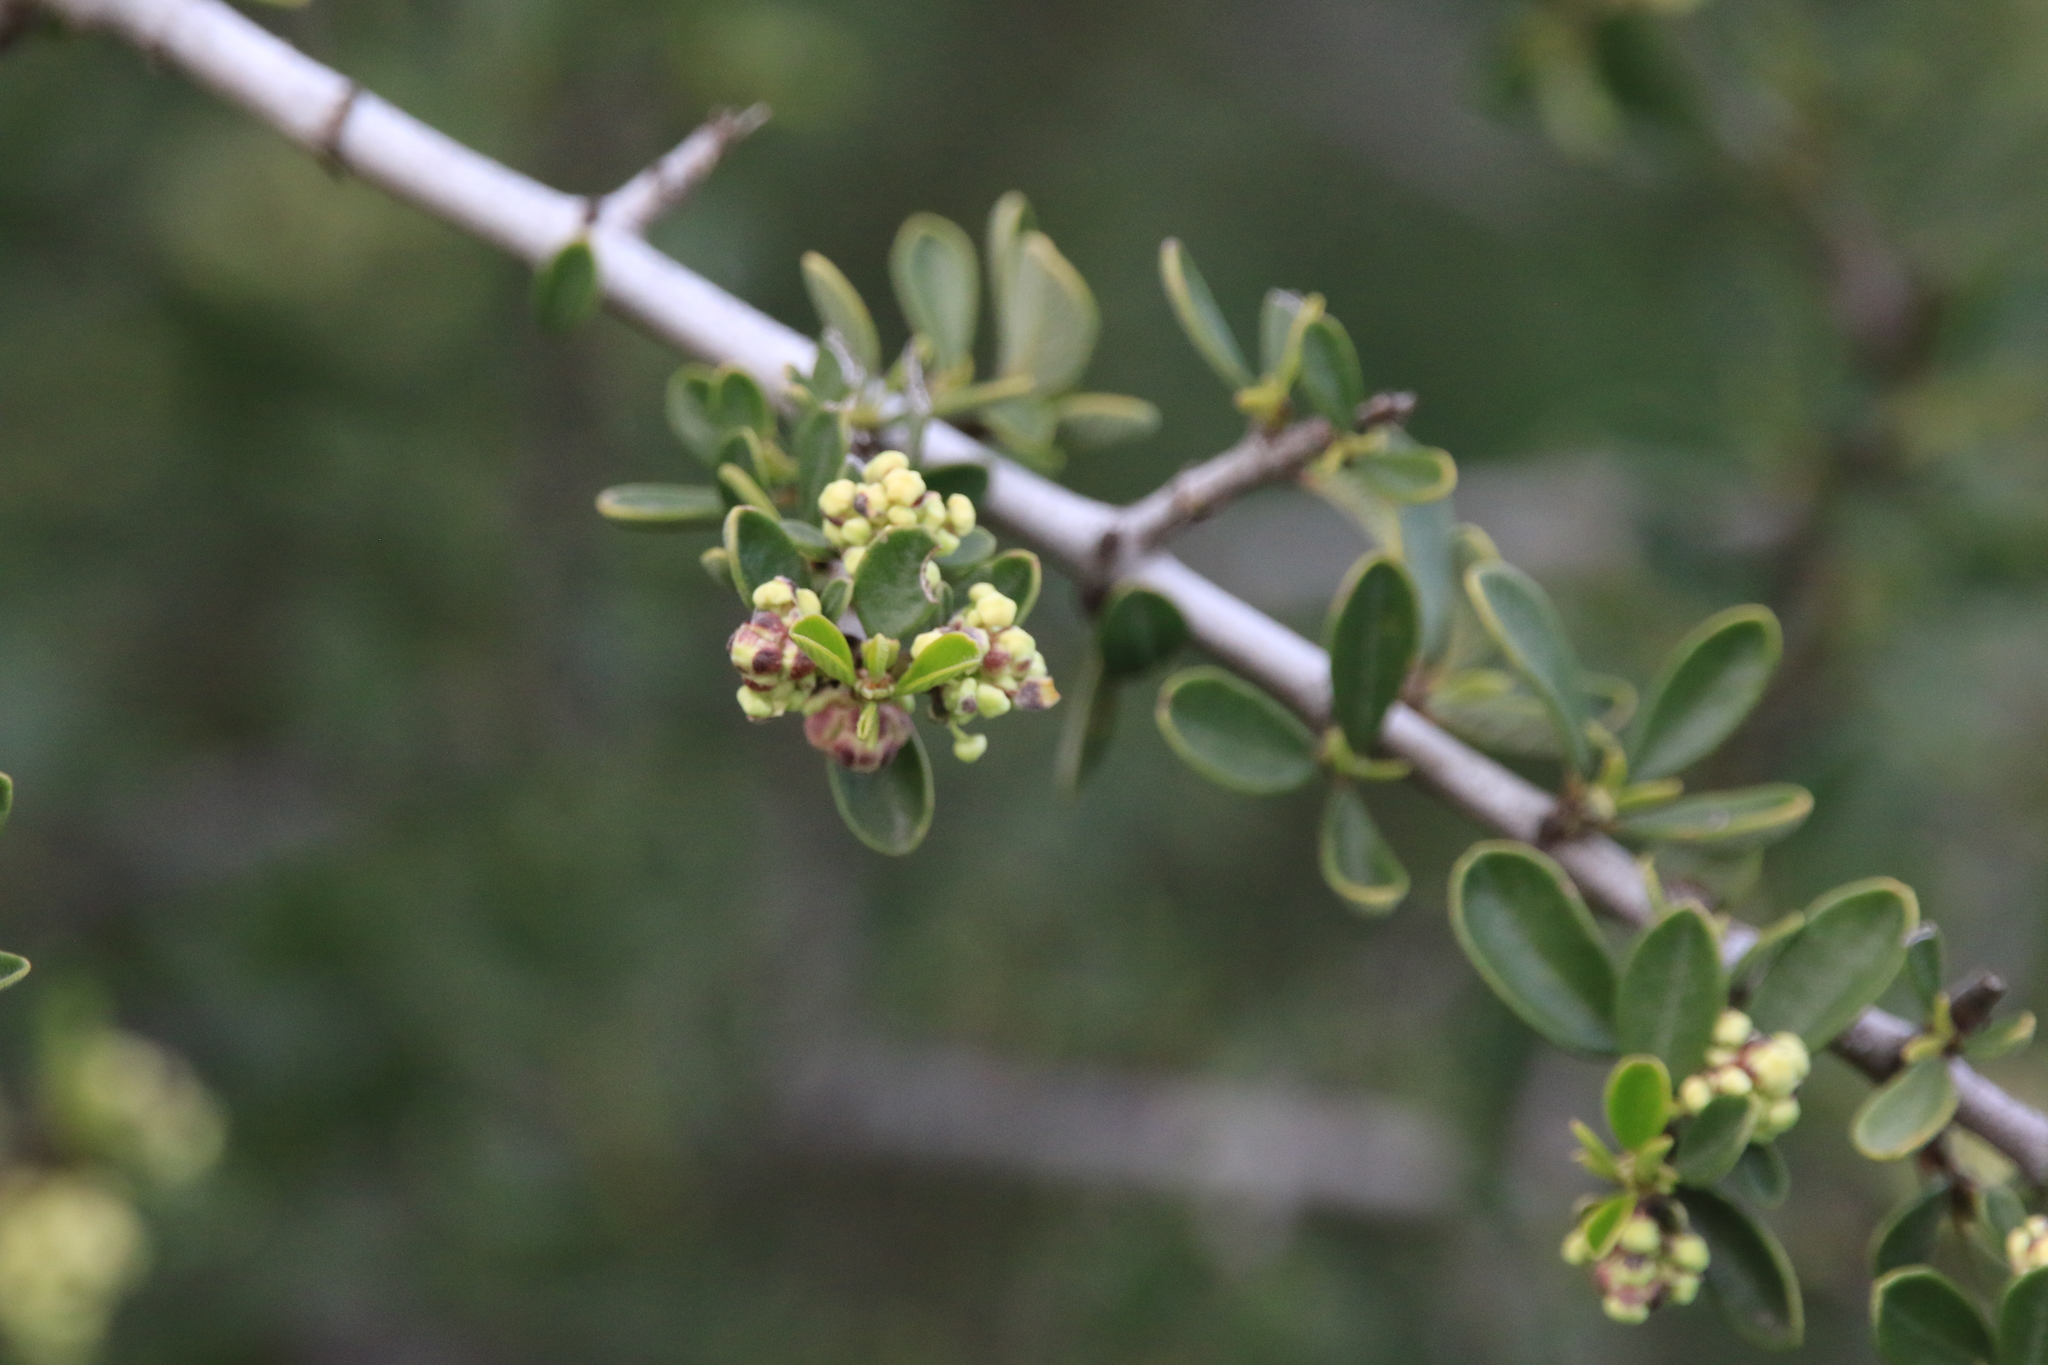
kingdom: Plantae
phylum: Tracheophyta
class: Magnoliopsida
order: Rosales
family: Rhamnaceae
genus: Ceanothus
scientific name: Ceanothus cuneatus
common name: Cuneate ceanothus
